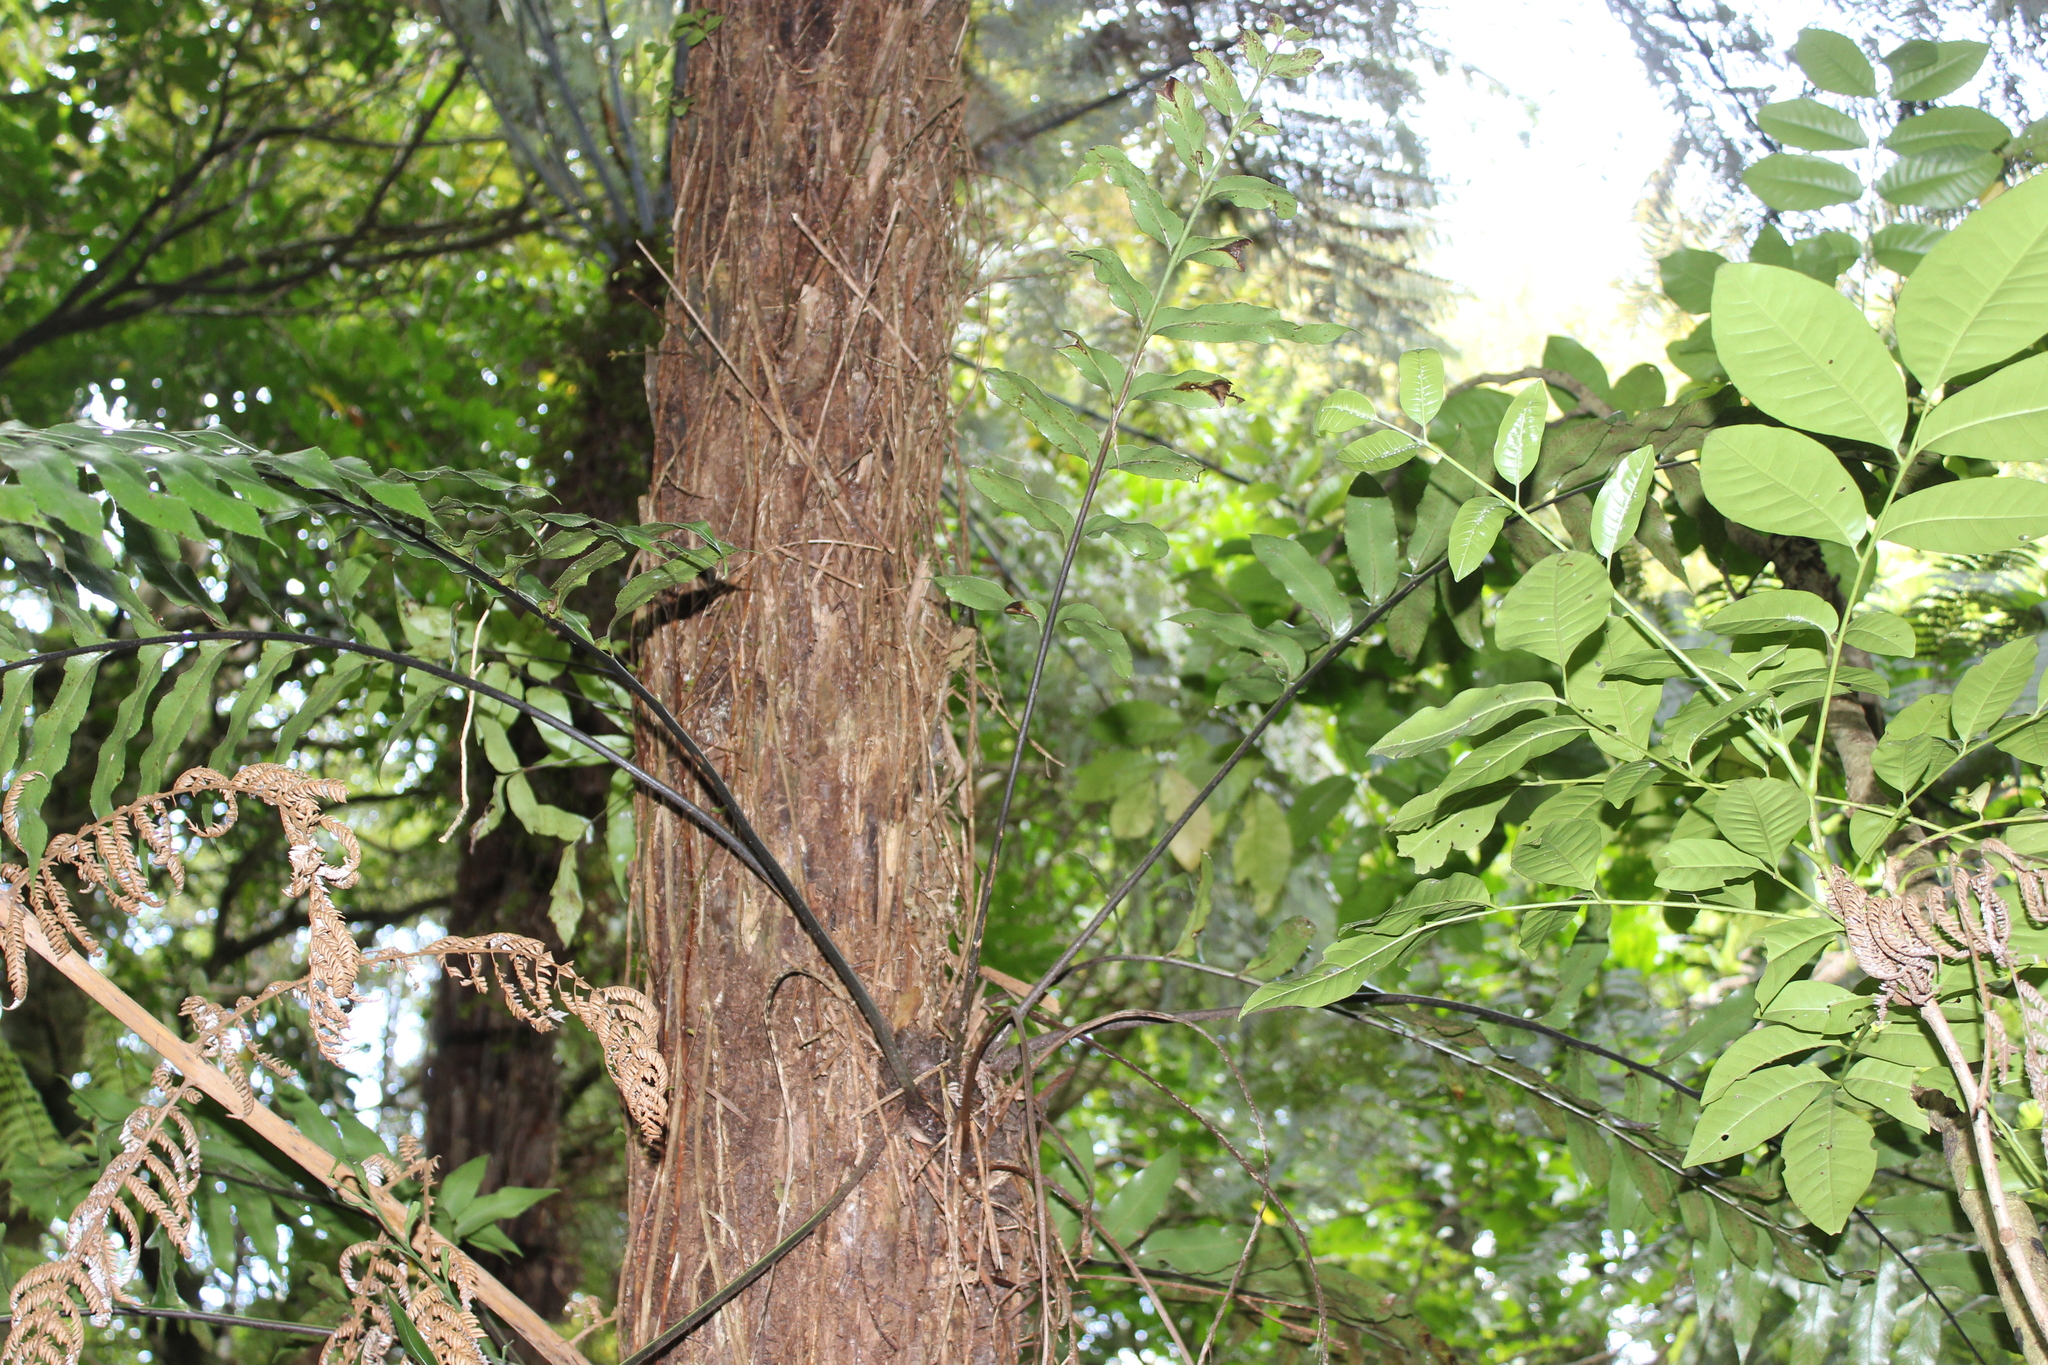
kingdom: Plantae
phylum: Tracheophyta
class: Polypodiopsida
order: Polypodiales
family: Aspleniaceae
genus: Asplenium
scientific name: Asplenium oblongifolium
